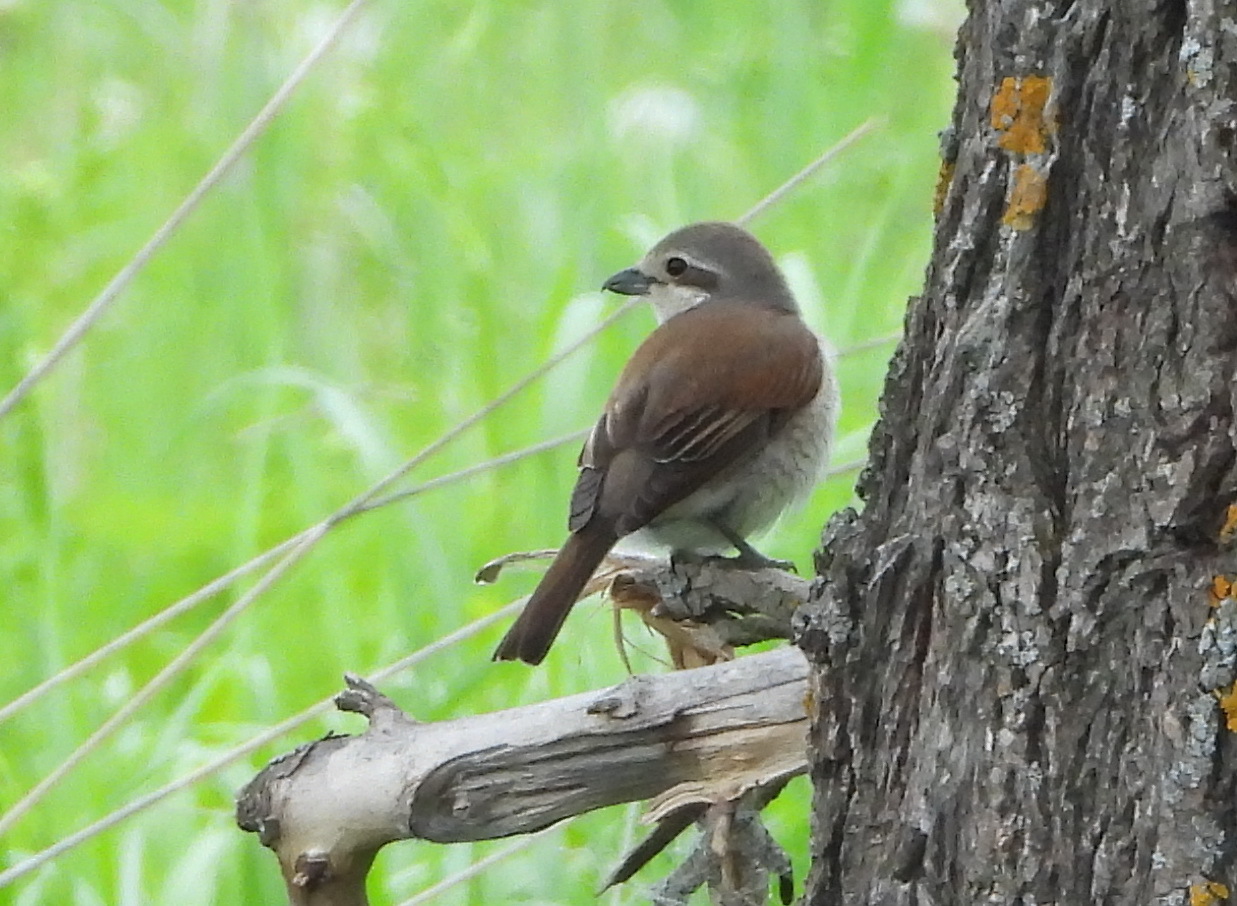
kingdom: Animalia
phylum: Chordata
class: Aves
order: Passeriformes
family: Laniidae
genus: Lanius
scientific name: Lanius collurio
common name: Red-backed shrike
